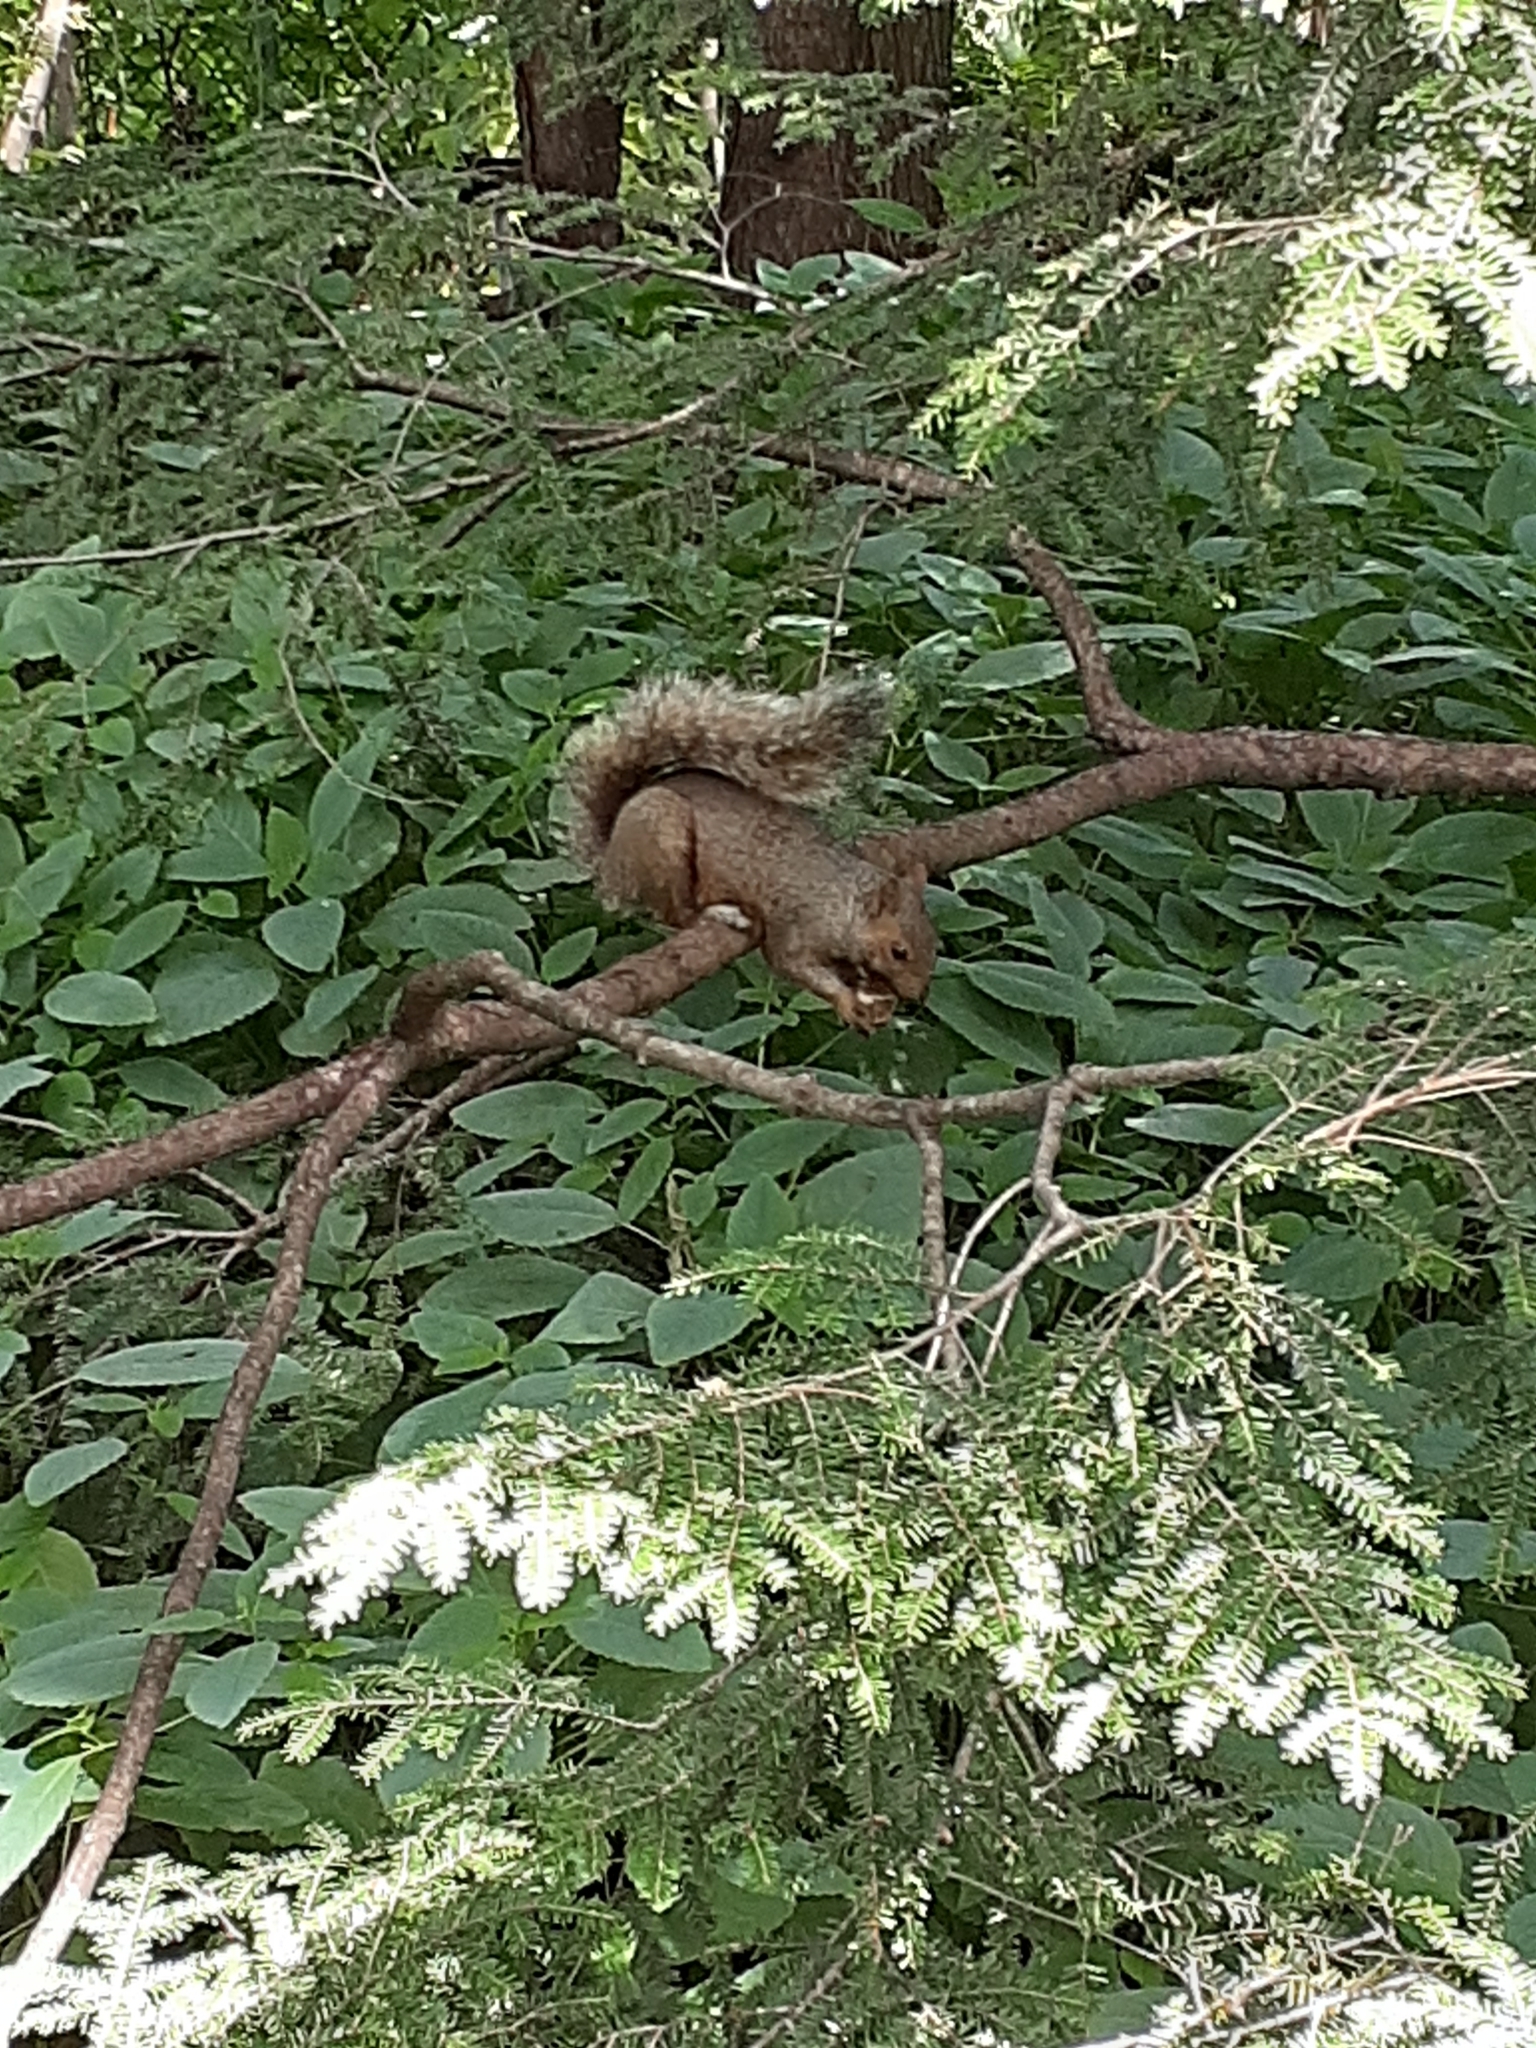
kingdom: Animalia
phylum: Chordata
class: Mammalia
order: Rodentia
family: Sciuridae
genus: Sciurus
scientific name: Sciurus carolinensis
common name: Eastern gray squirrel
